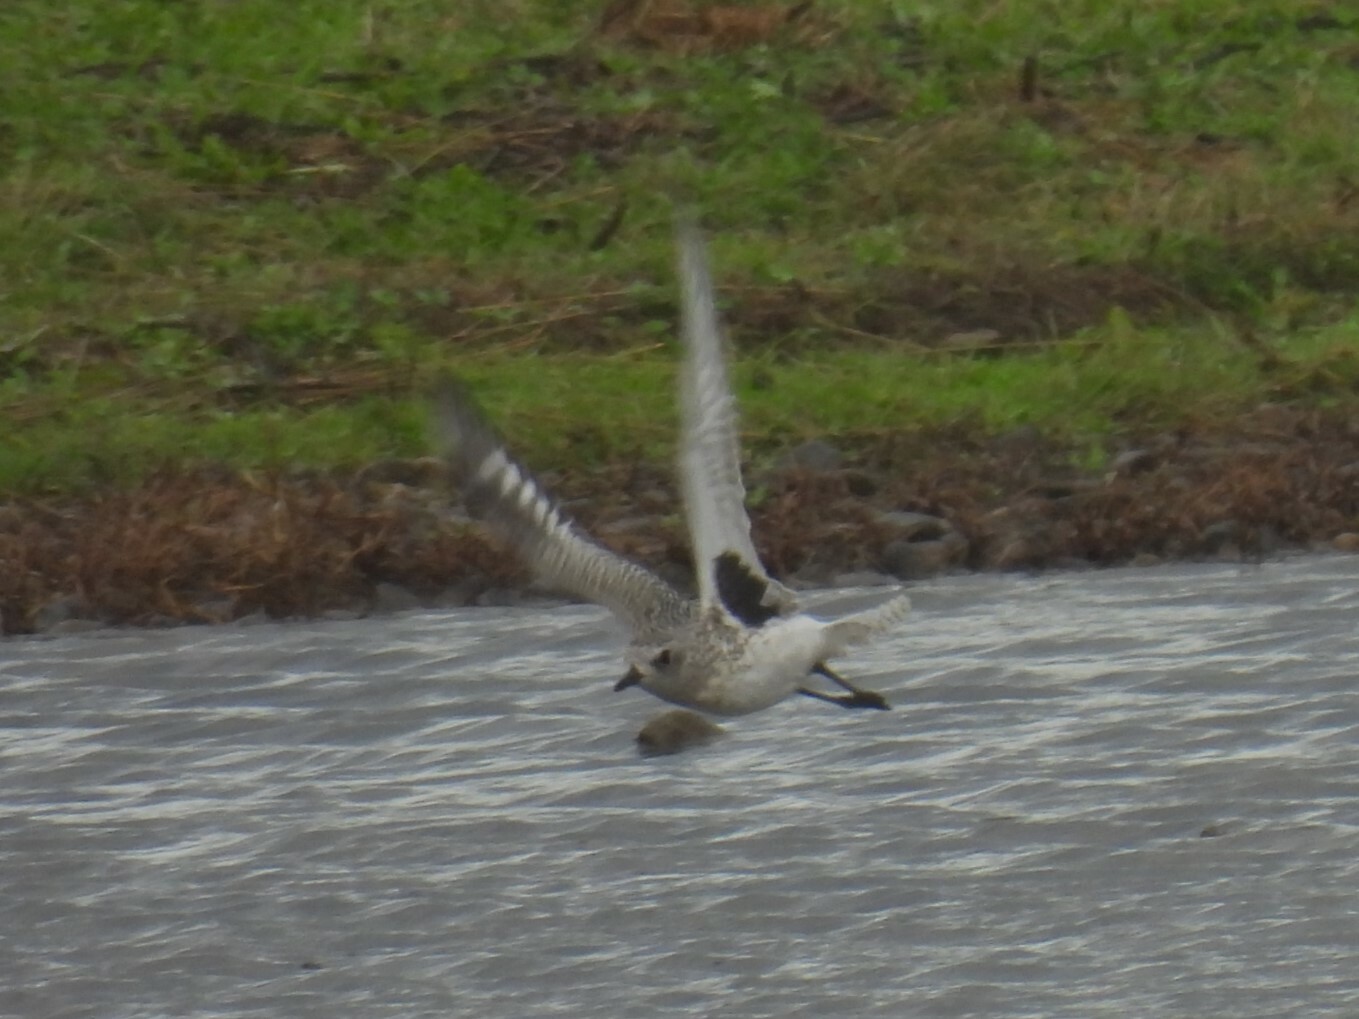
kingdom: Animalia
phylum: Chordata
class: Aves
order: Charadriiformes
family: Charadriidae
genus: Pluvialis
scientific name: Pluvialis squatarola
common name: Grey plover
